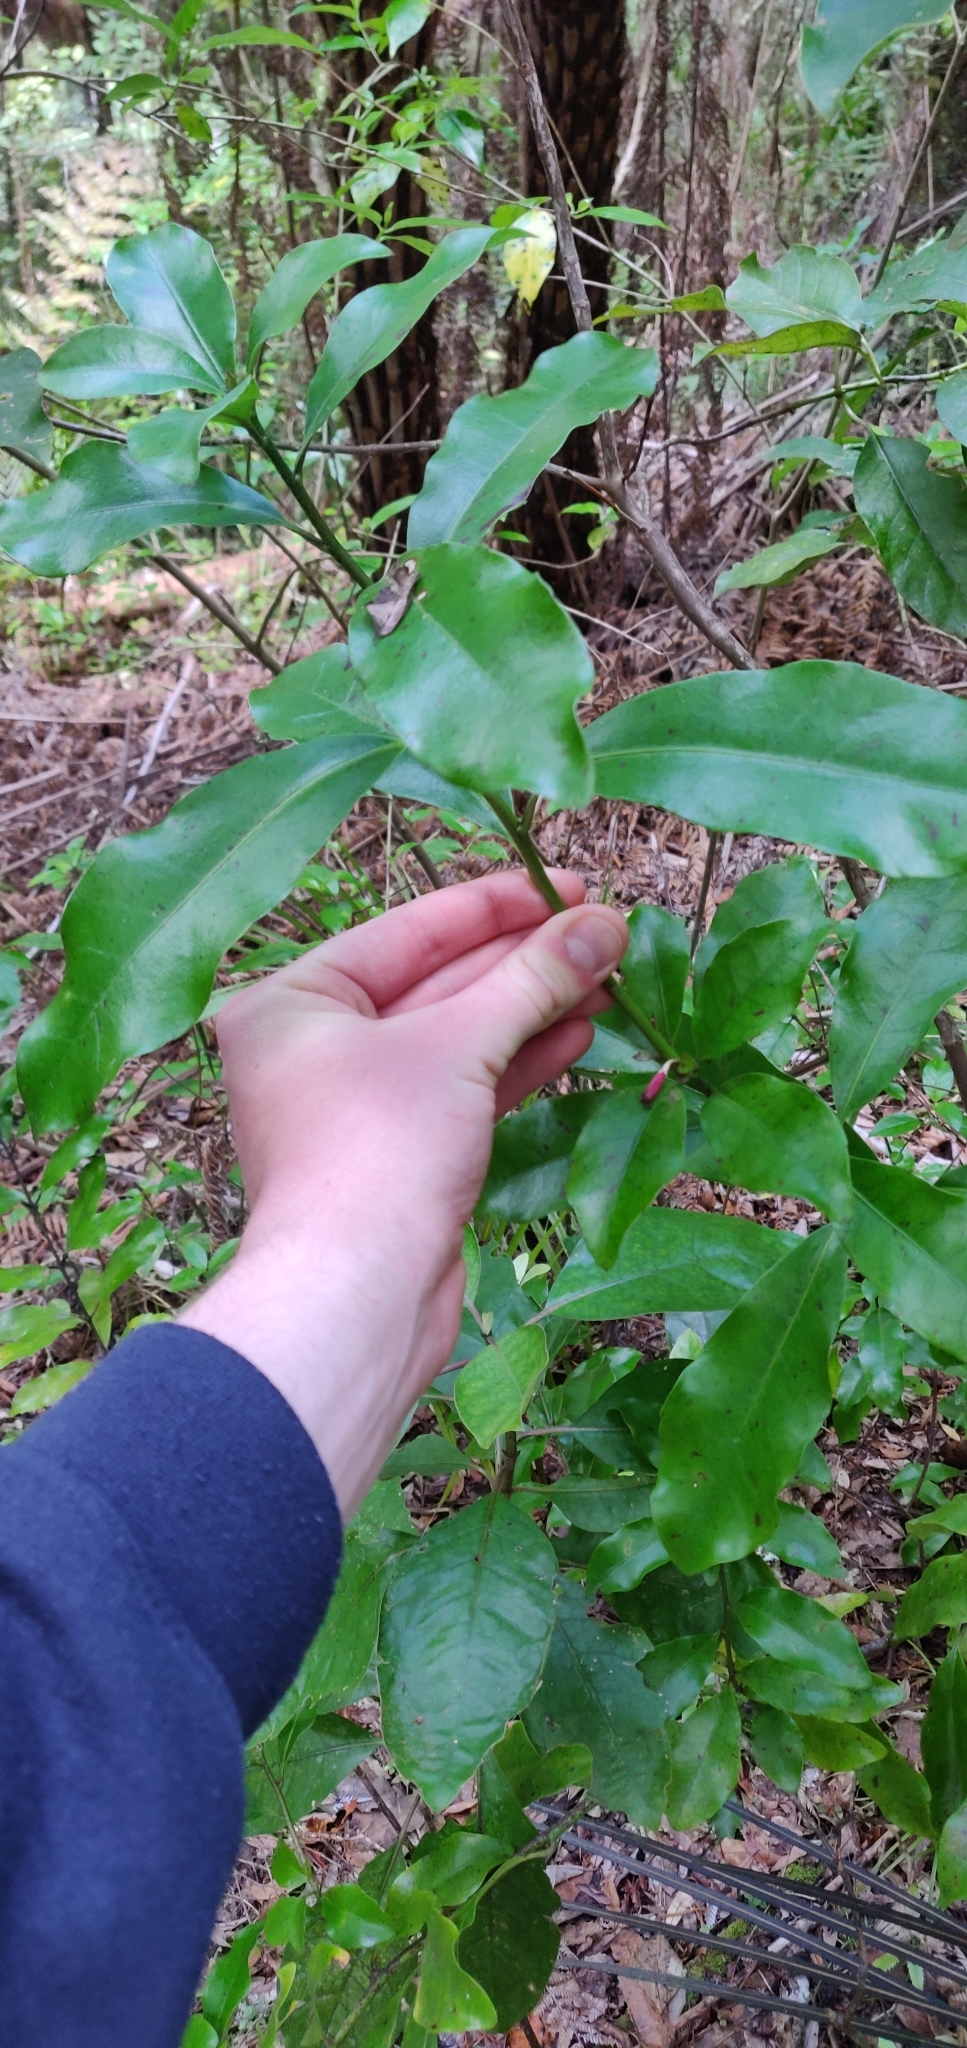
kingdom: Plantae
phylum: Tracheophyta
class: Magnoliopsida
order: Asterales
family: Alseuosmiaceae
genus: Alseuosmia
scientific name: Alseuosmia macrophylla
